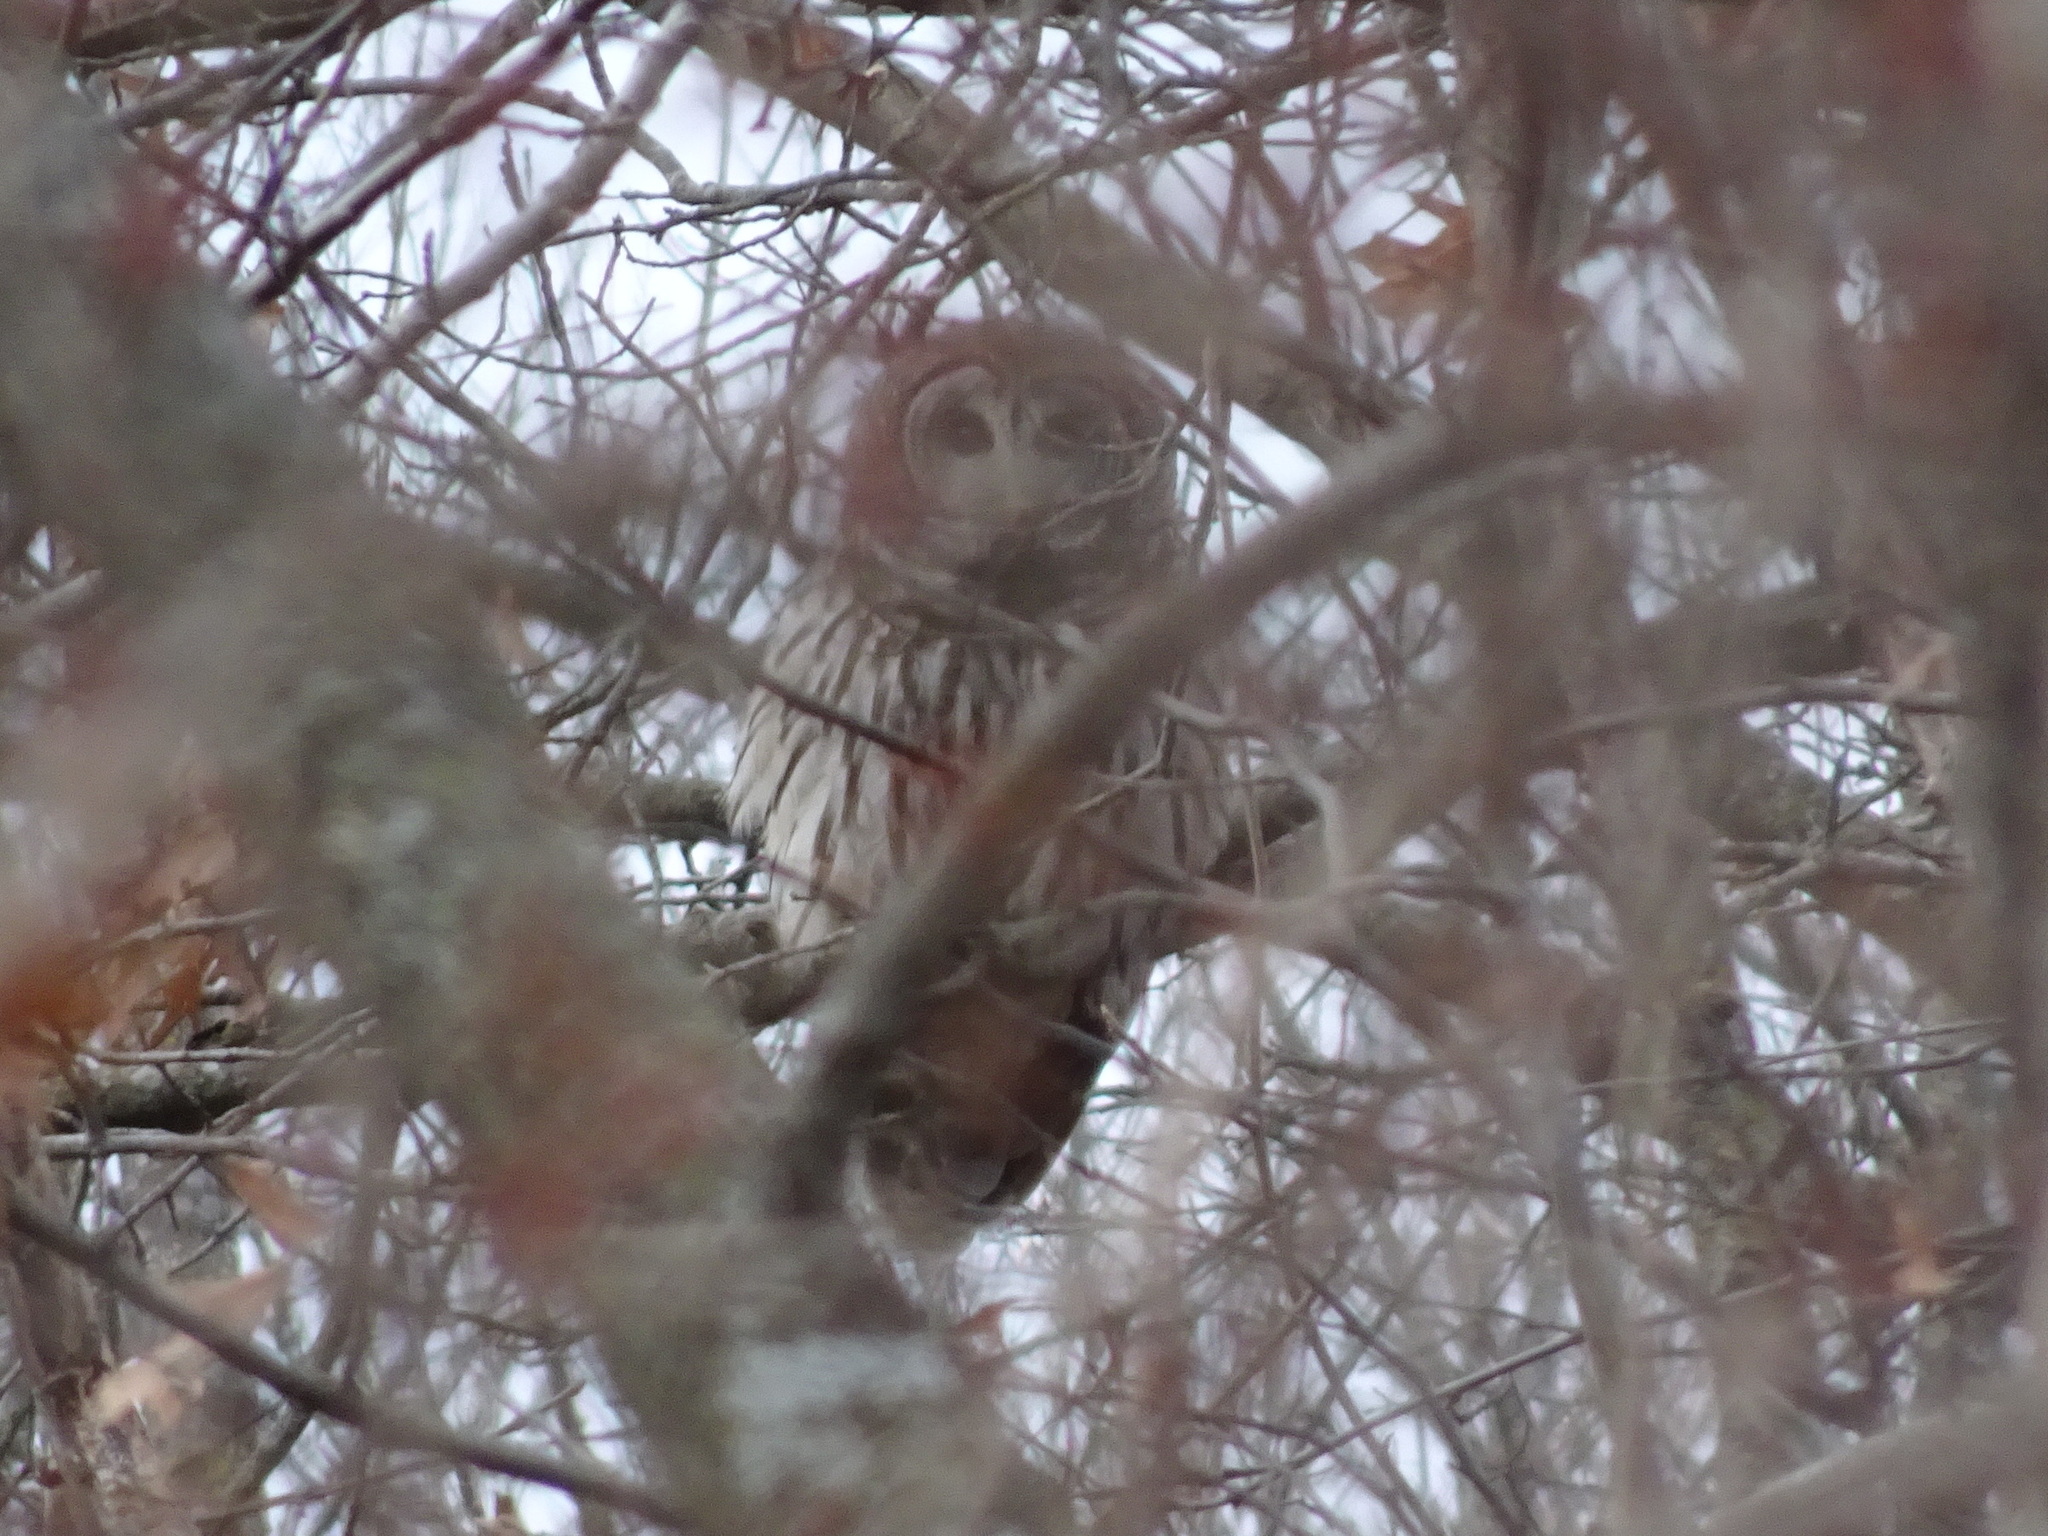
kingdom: Animalia
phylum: Chordata
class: Aves
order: Strigiformes
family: Strigidae
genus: Strix
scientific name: Strix varia
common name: Barred owl
